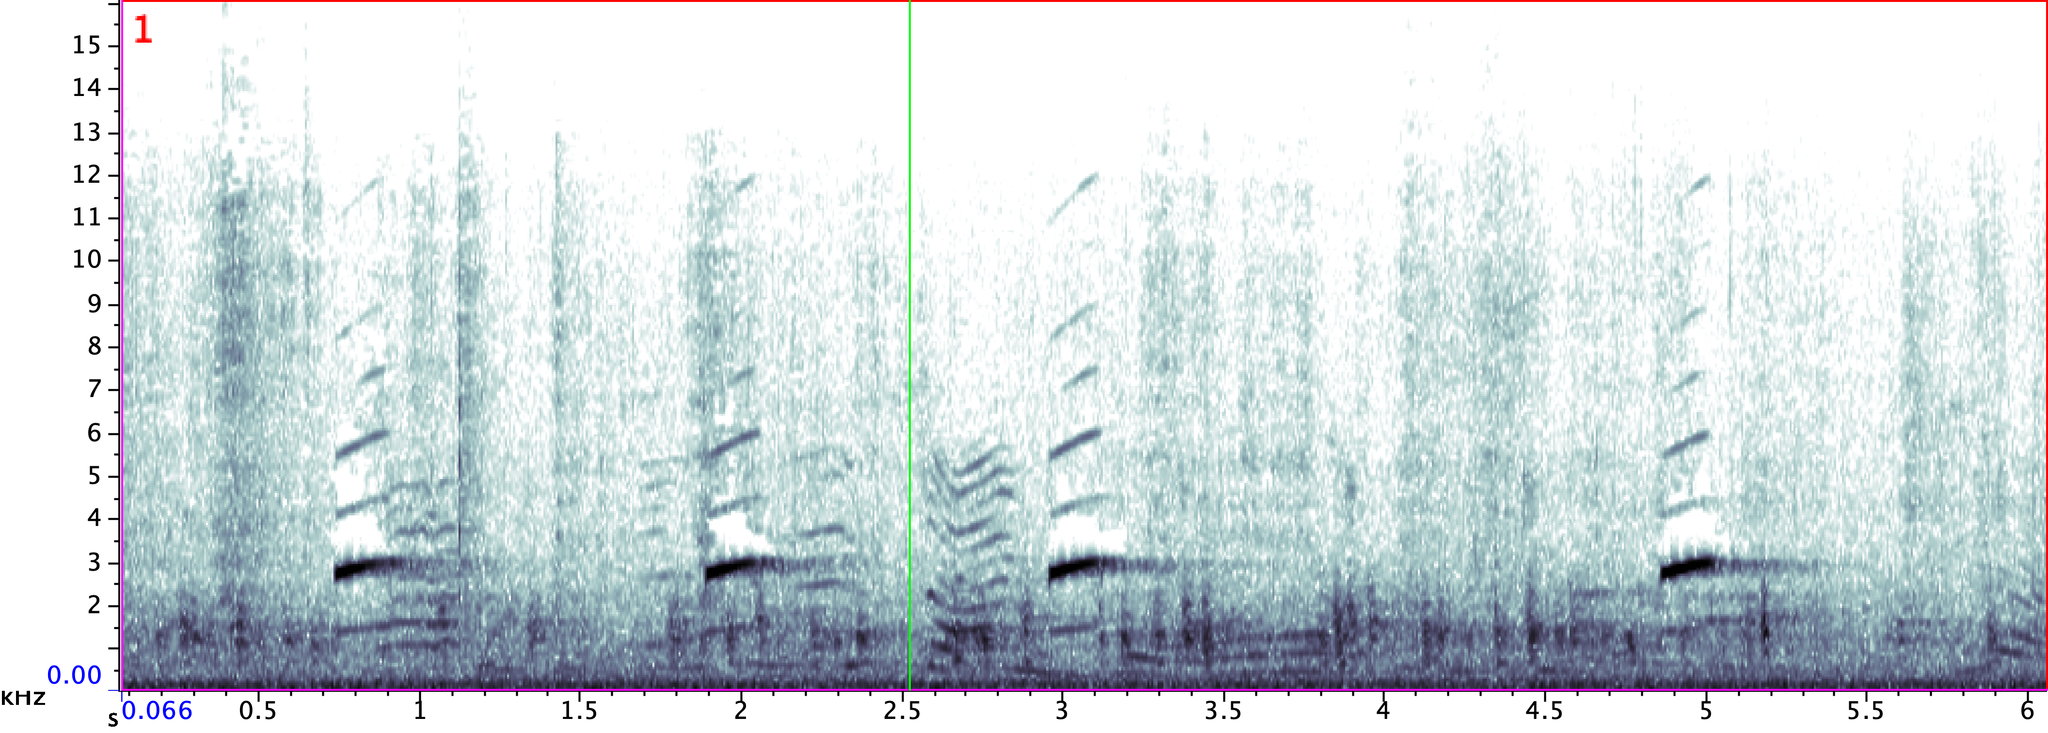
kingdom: Animalia
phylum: Chordata
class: Amphibia
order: Anura
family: Hylidae
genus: Pseudacris
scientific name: Pseudacris crucifer
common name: Spring peeper
